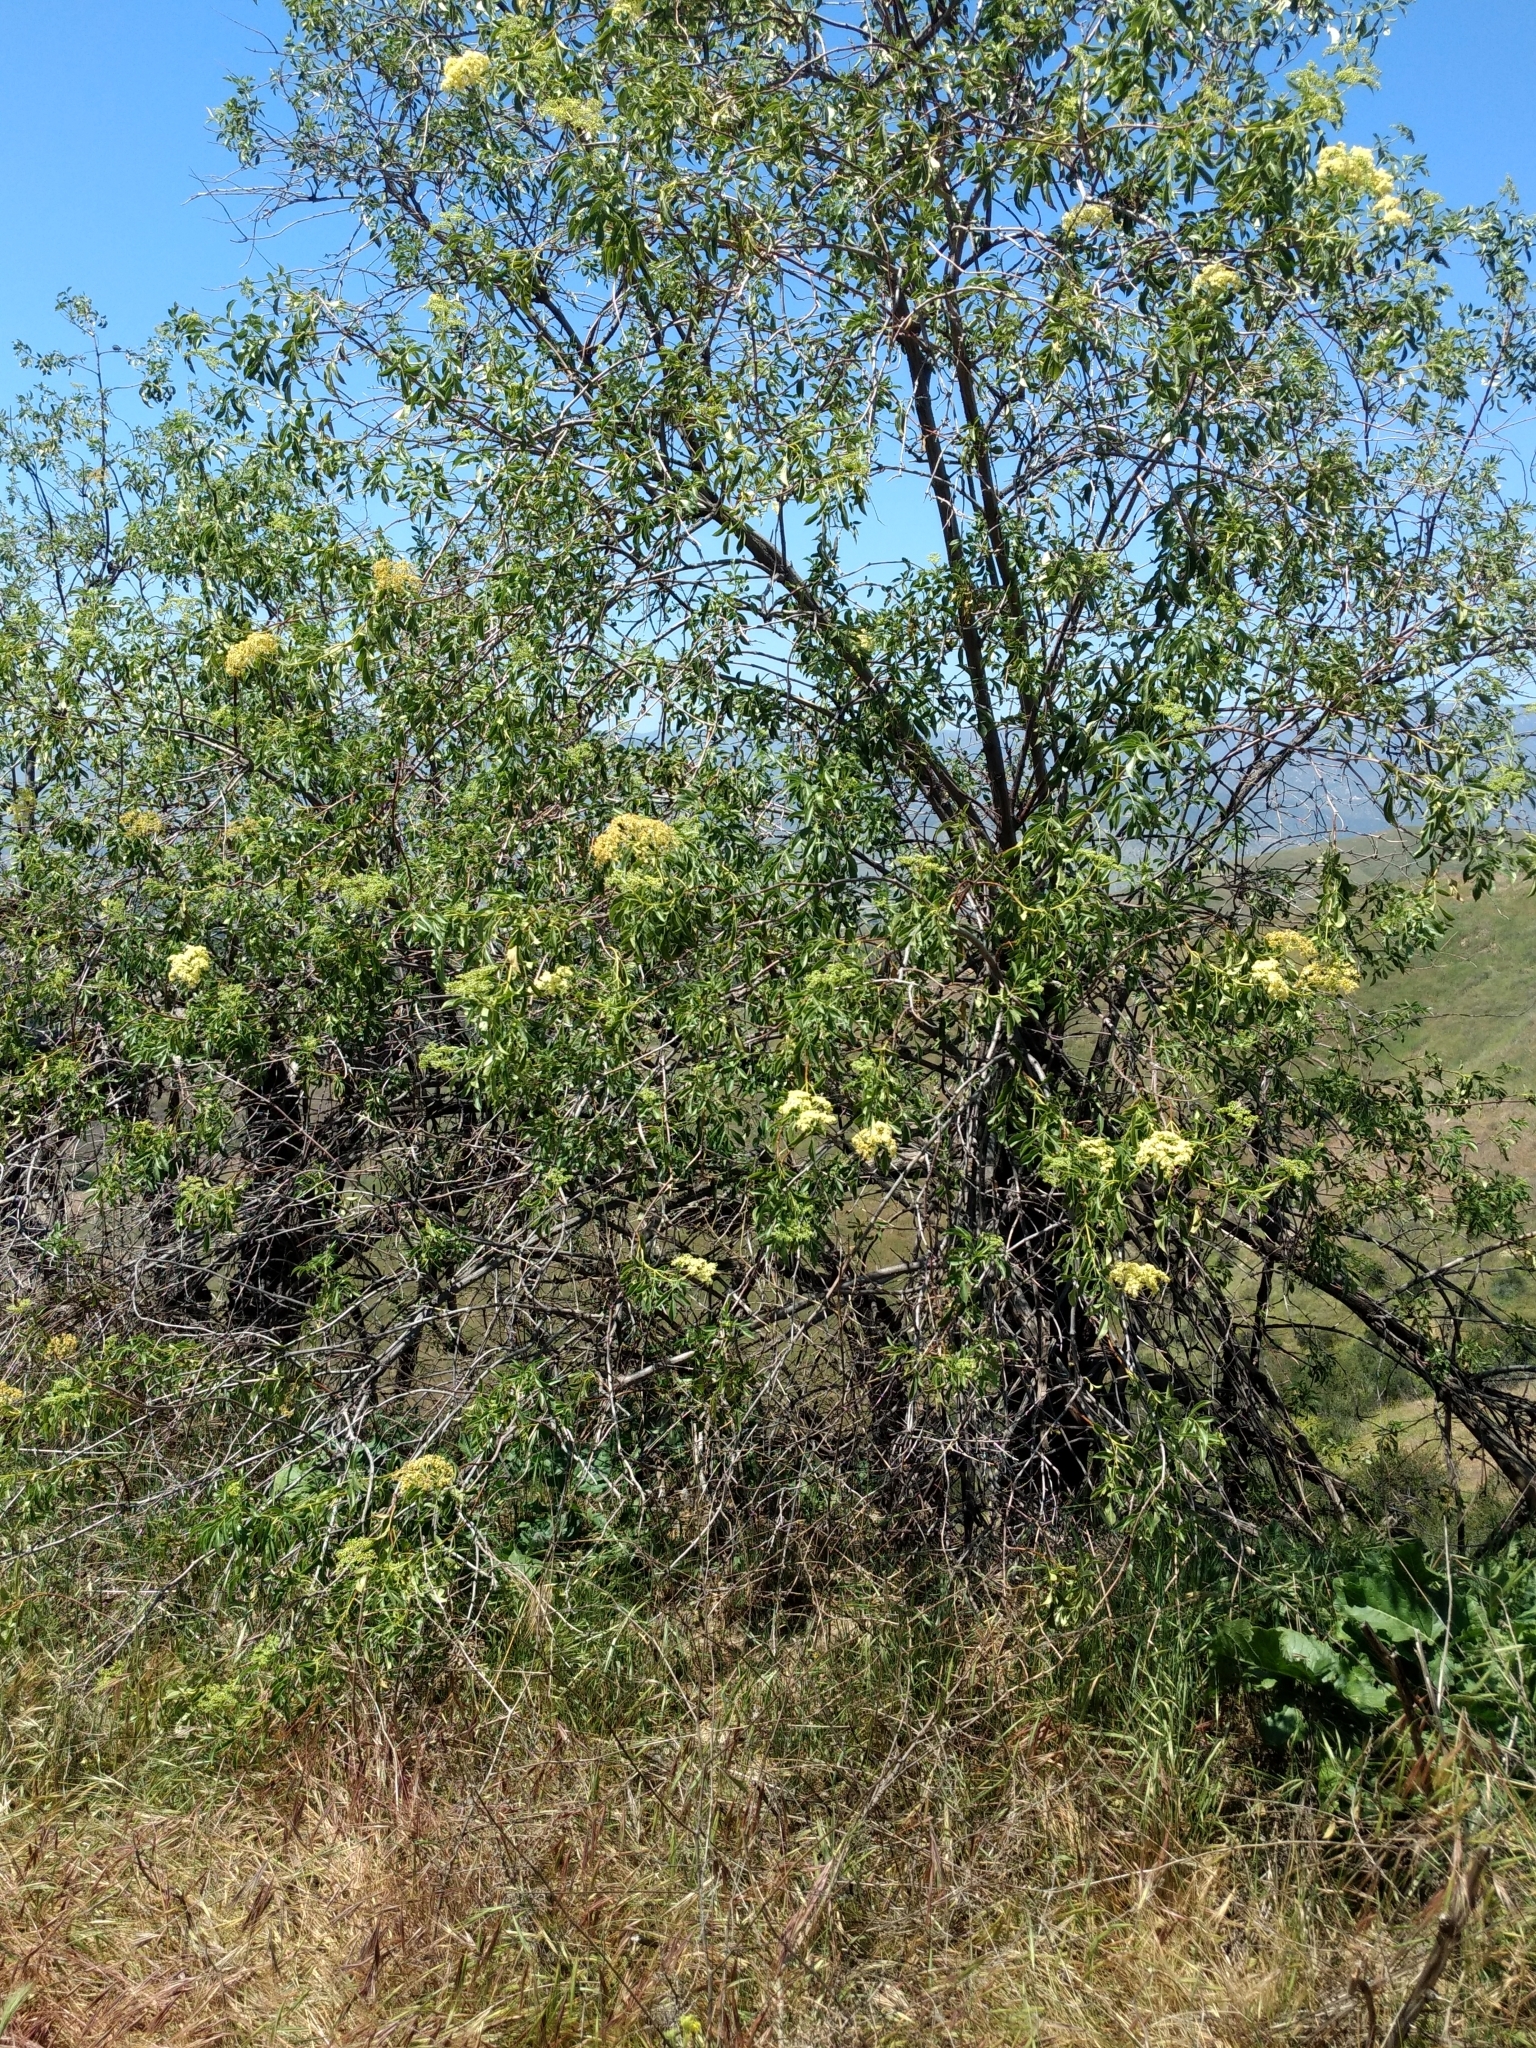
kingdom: Plantae
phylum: Tracheophyta
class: Magnoliopsida
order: Dipsacales
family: Viburnaceae
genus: Sambucus
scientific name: Sambucus cerulea
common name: Blue elder
